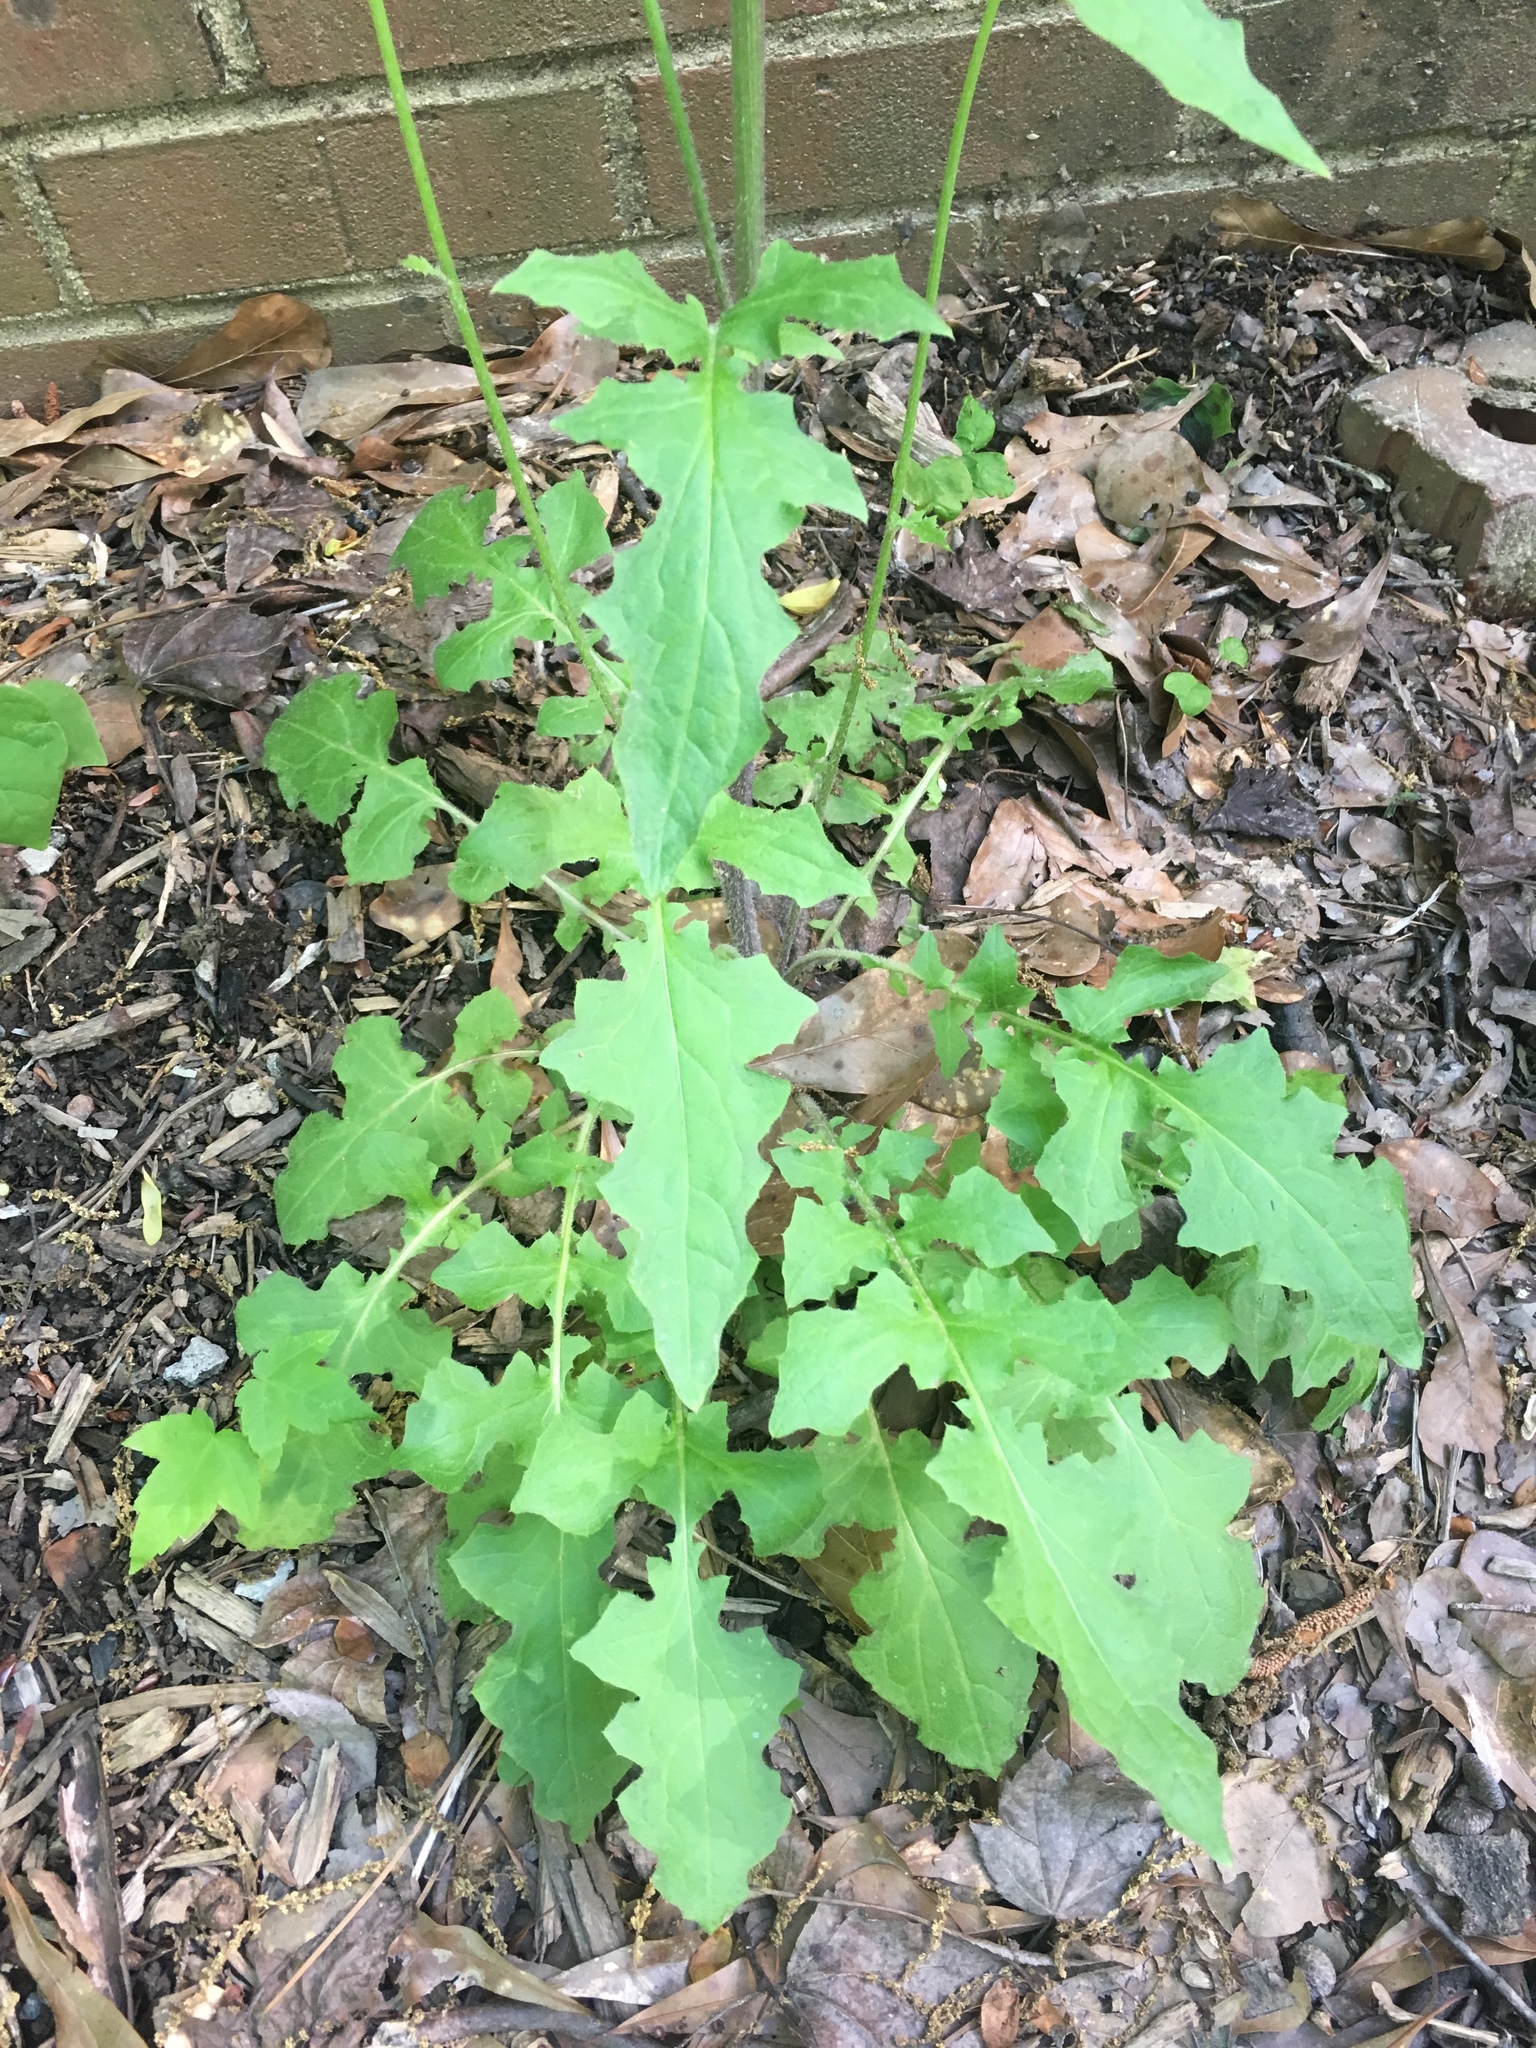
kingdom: Plantae
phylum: Tracheophyta
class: Magnoliopsida
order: Asterales
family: Asteraceae
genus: Youngia
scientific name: Youngia japonica
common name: Oriental false hawksbeard
